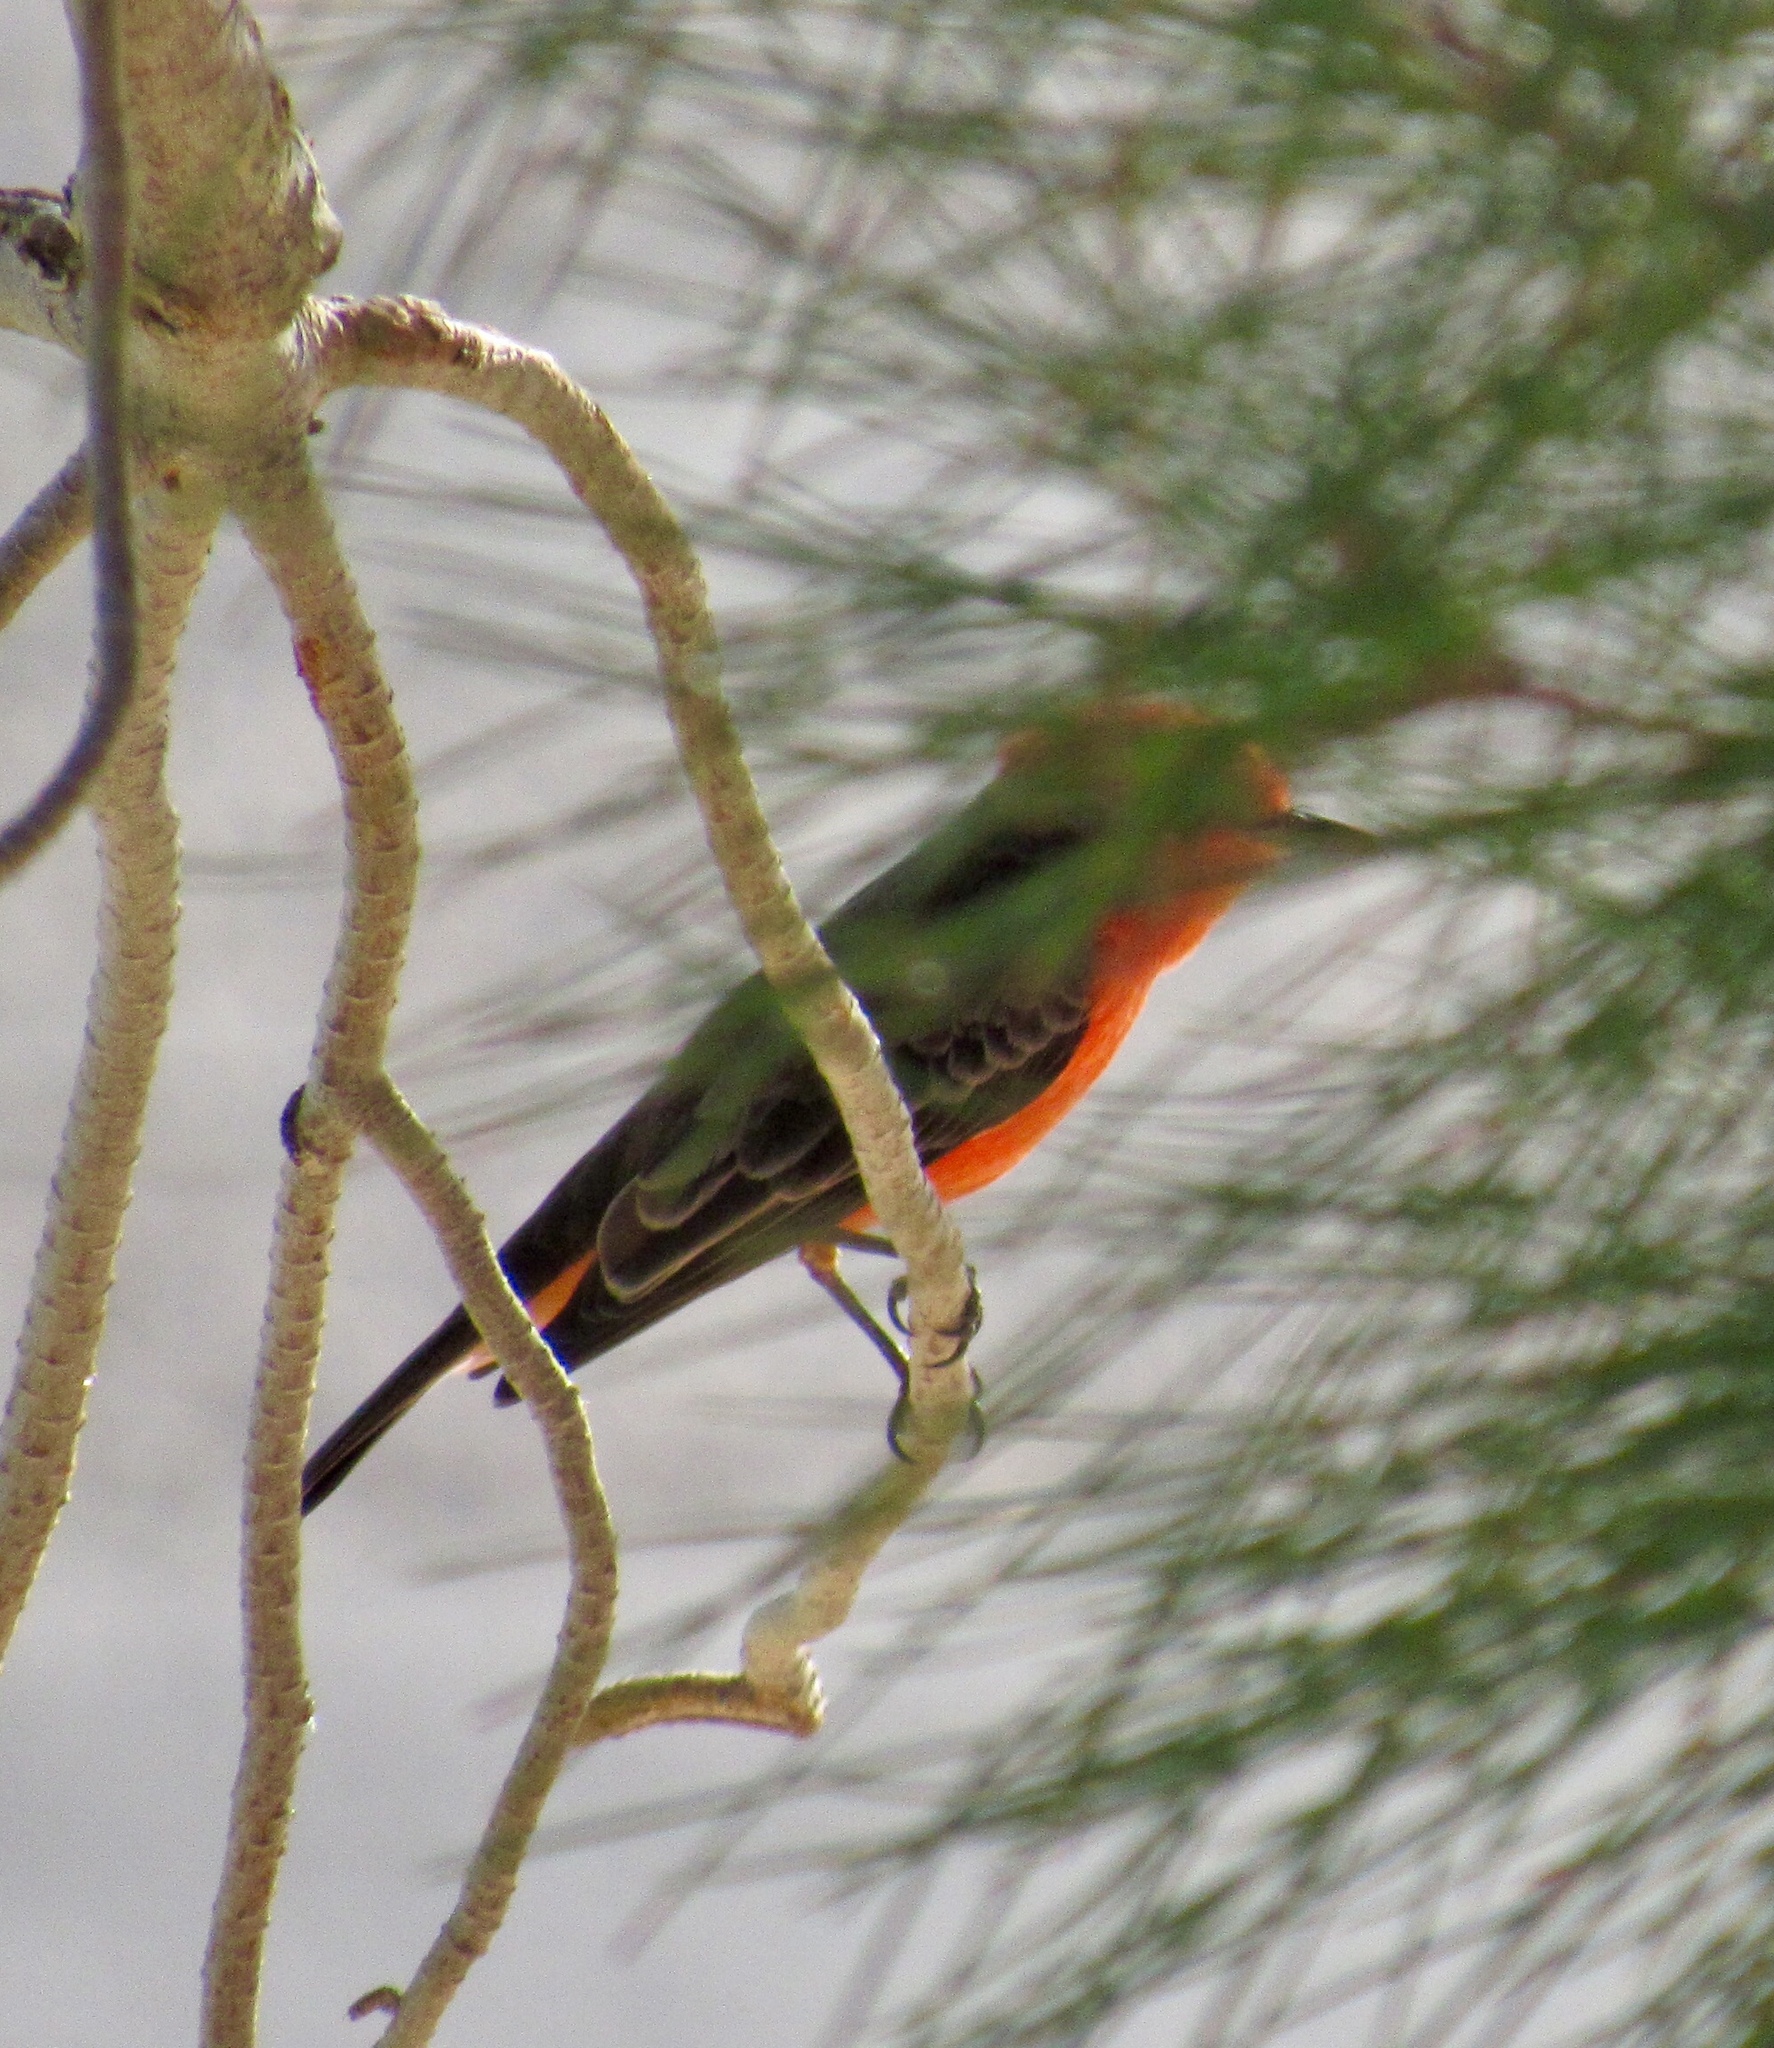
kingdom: Animalia
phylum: Chordata
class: Aves
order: Passeriformes
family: Tyrannidae
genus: Pyrocephalus
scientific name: Pyrocephalus rubinus
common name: Vermilion flycatcher
